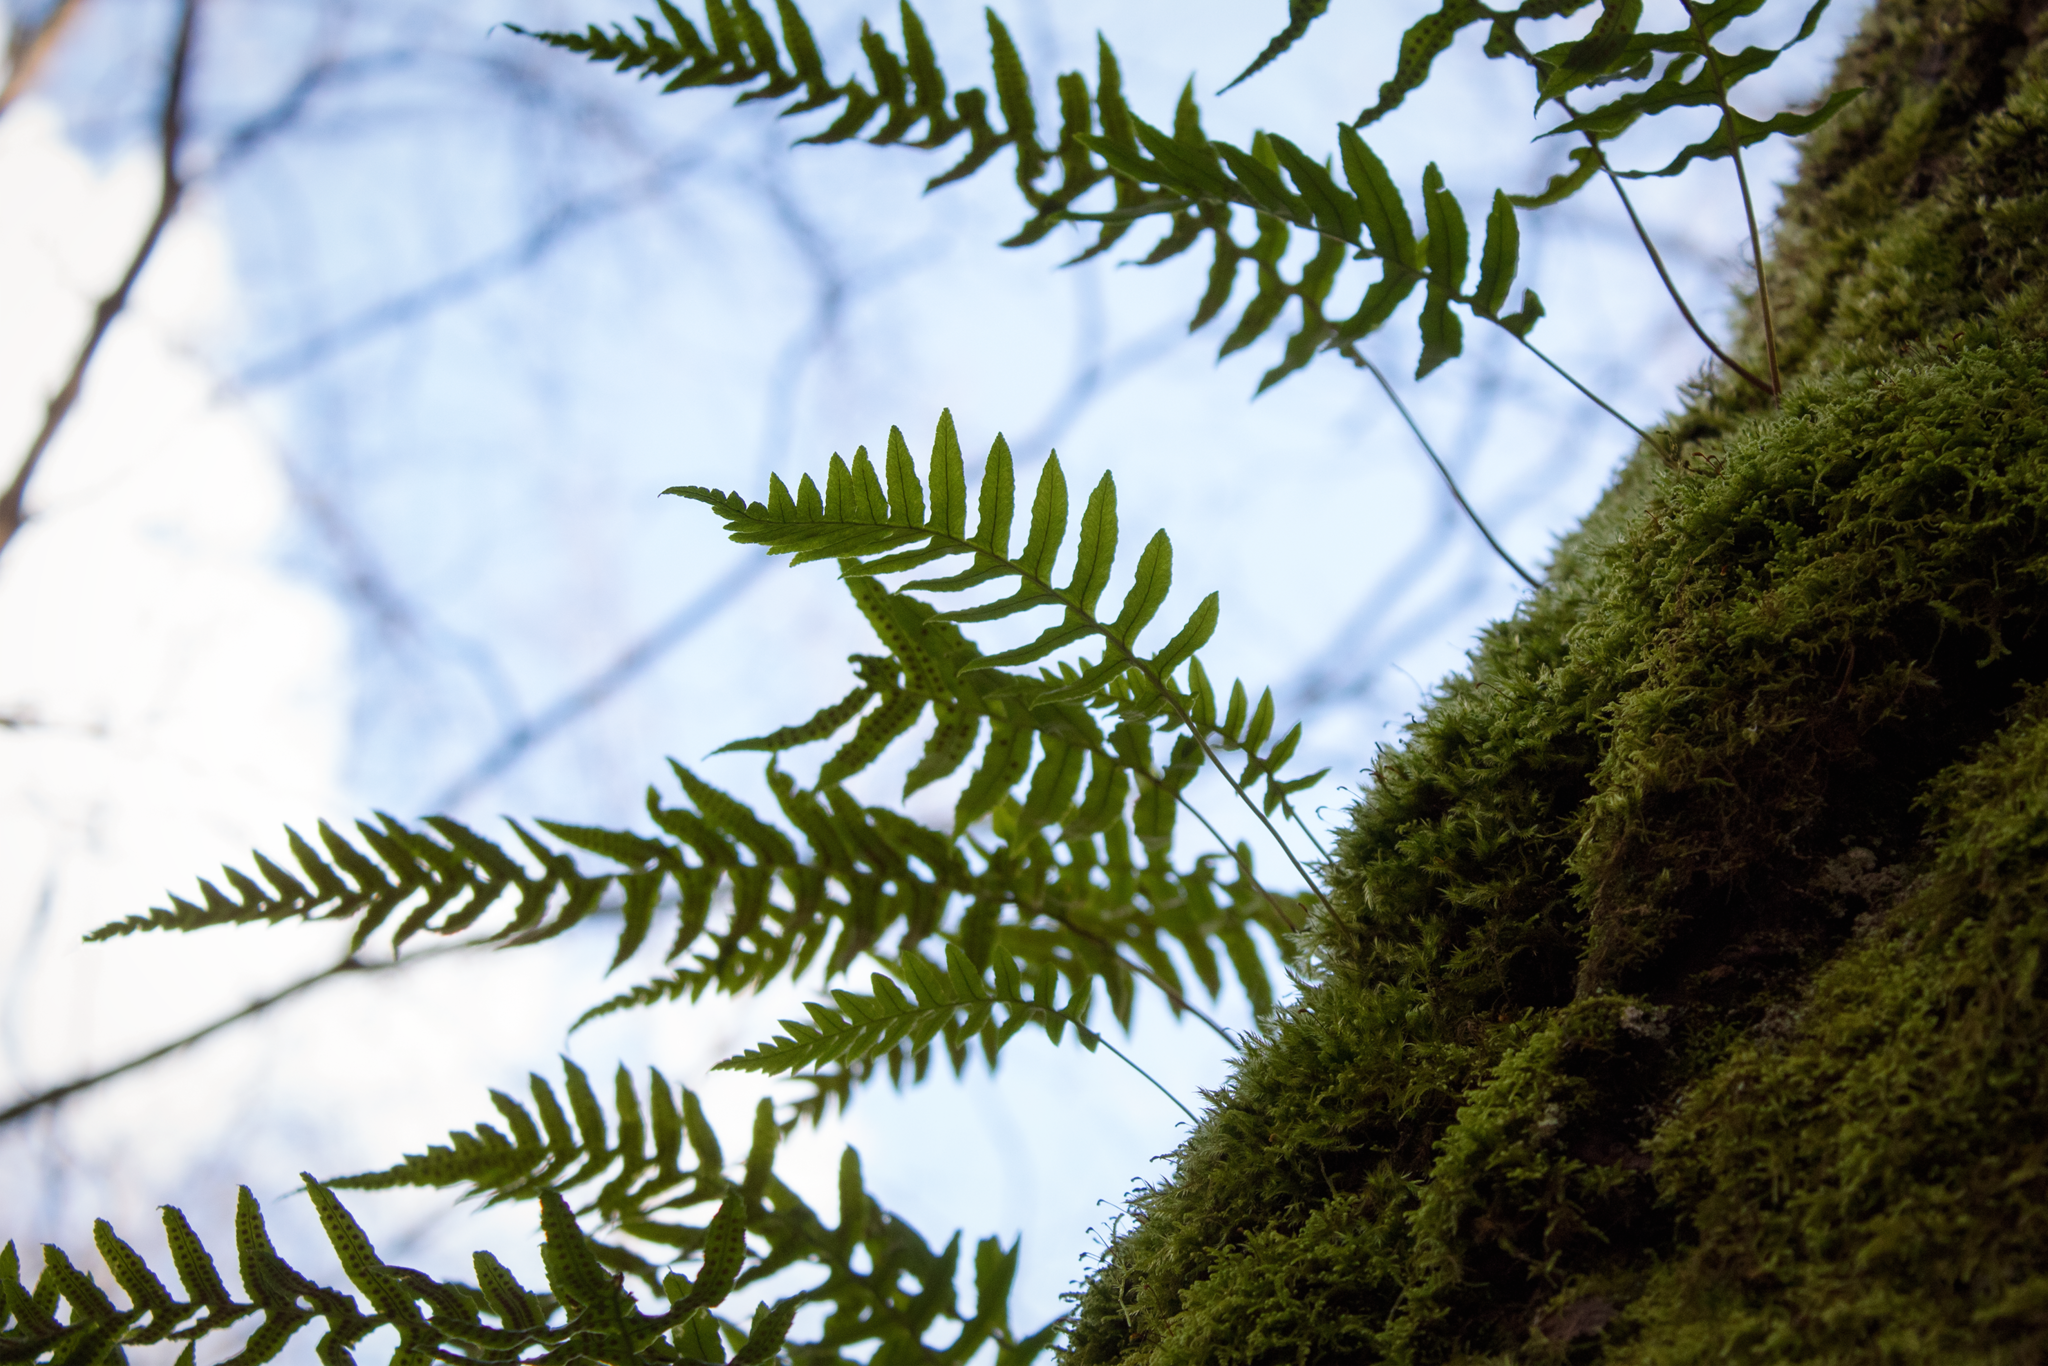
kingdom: Plantae
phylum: Tracheophyta
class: Polypodiopsida
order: Polypodiales
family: Polypodiaceae
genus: Polypodium
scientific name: Polypodium glycyrrhiza
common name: Licorice fern
